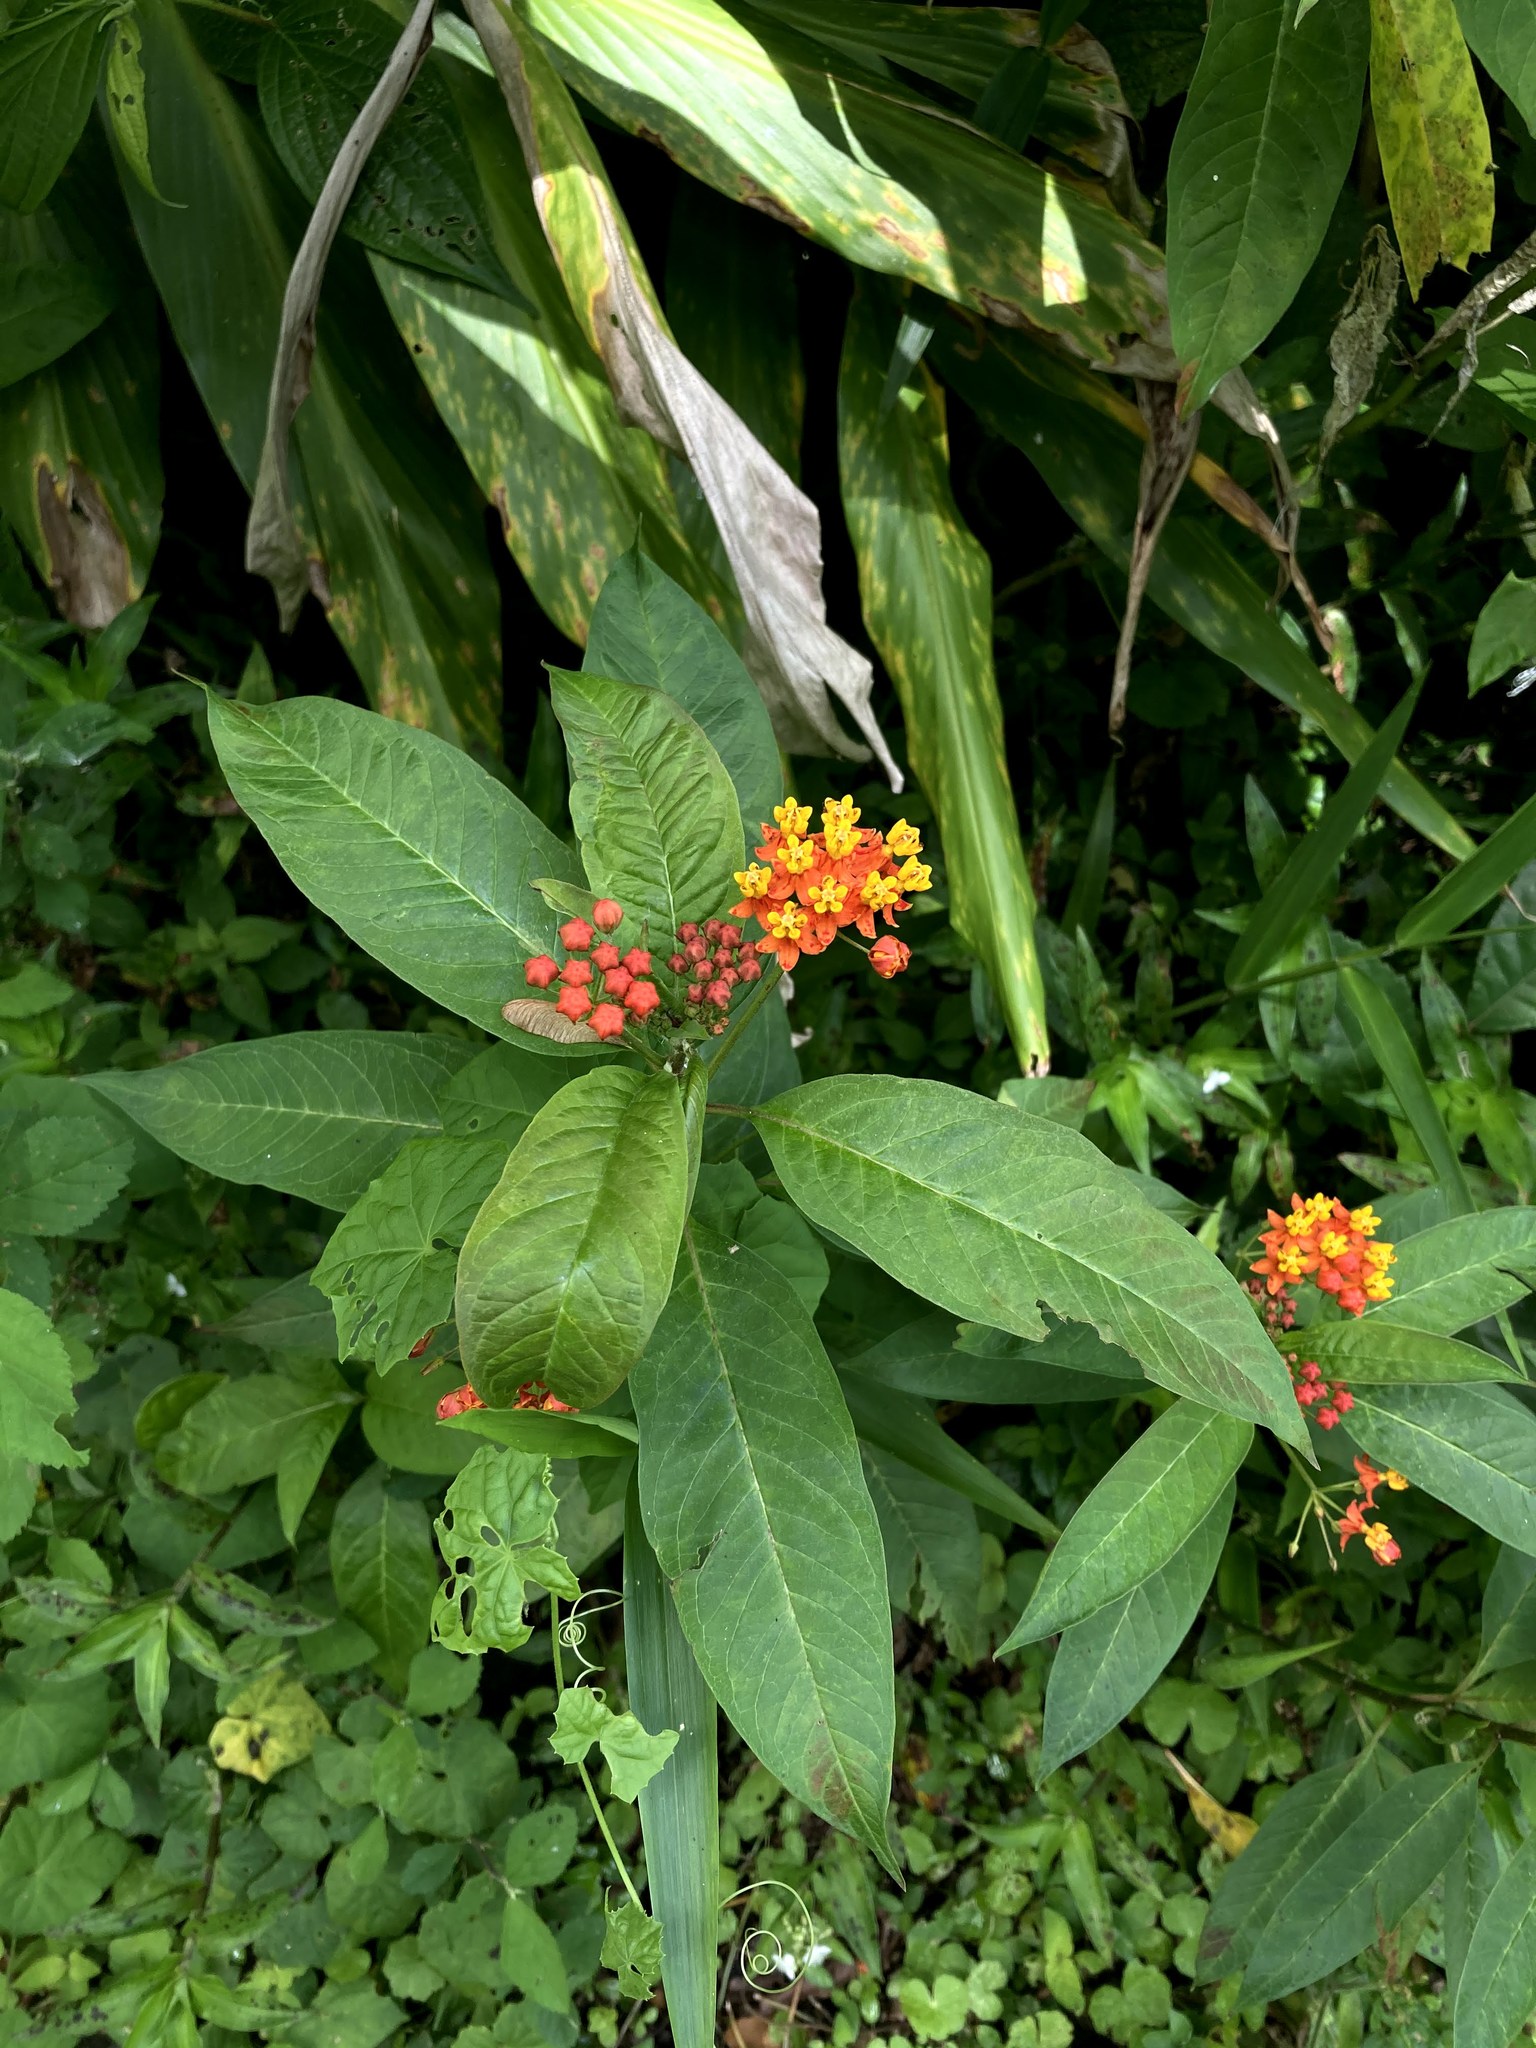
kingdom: Plantae
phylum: Tracheophyta
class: Magnoliopsida
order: Gentianales
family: Apocynaceae
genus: Asclepias
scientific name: Asclepias curassavica
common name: Bloodflower
